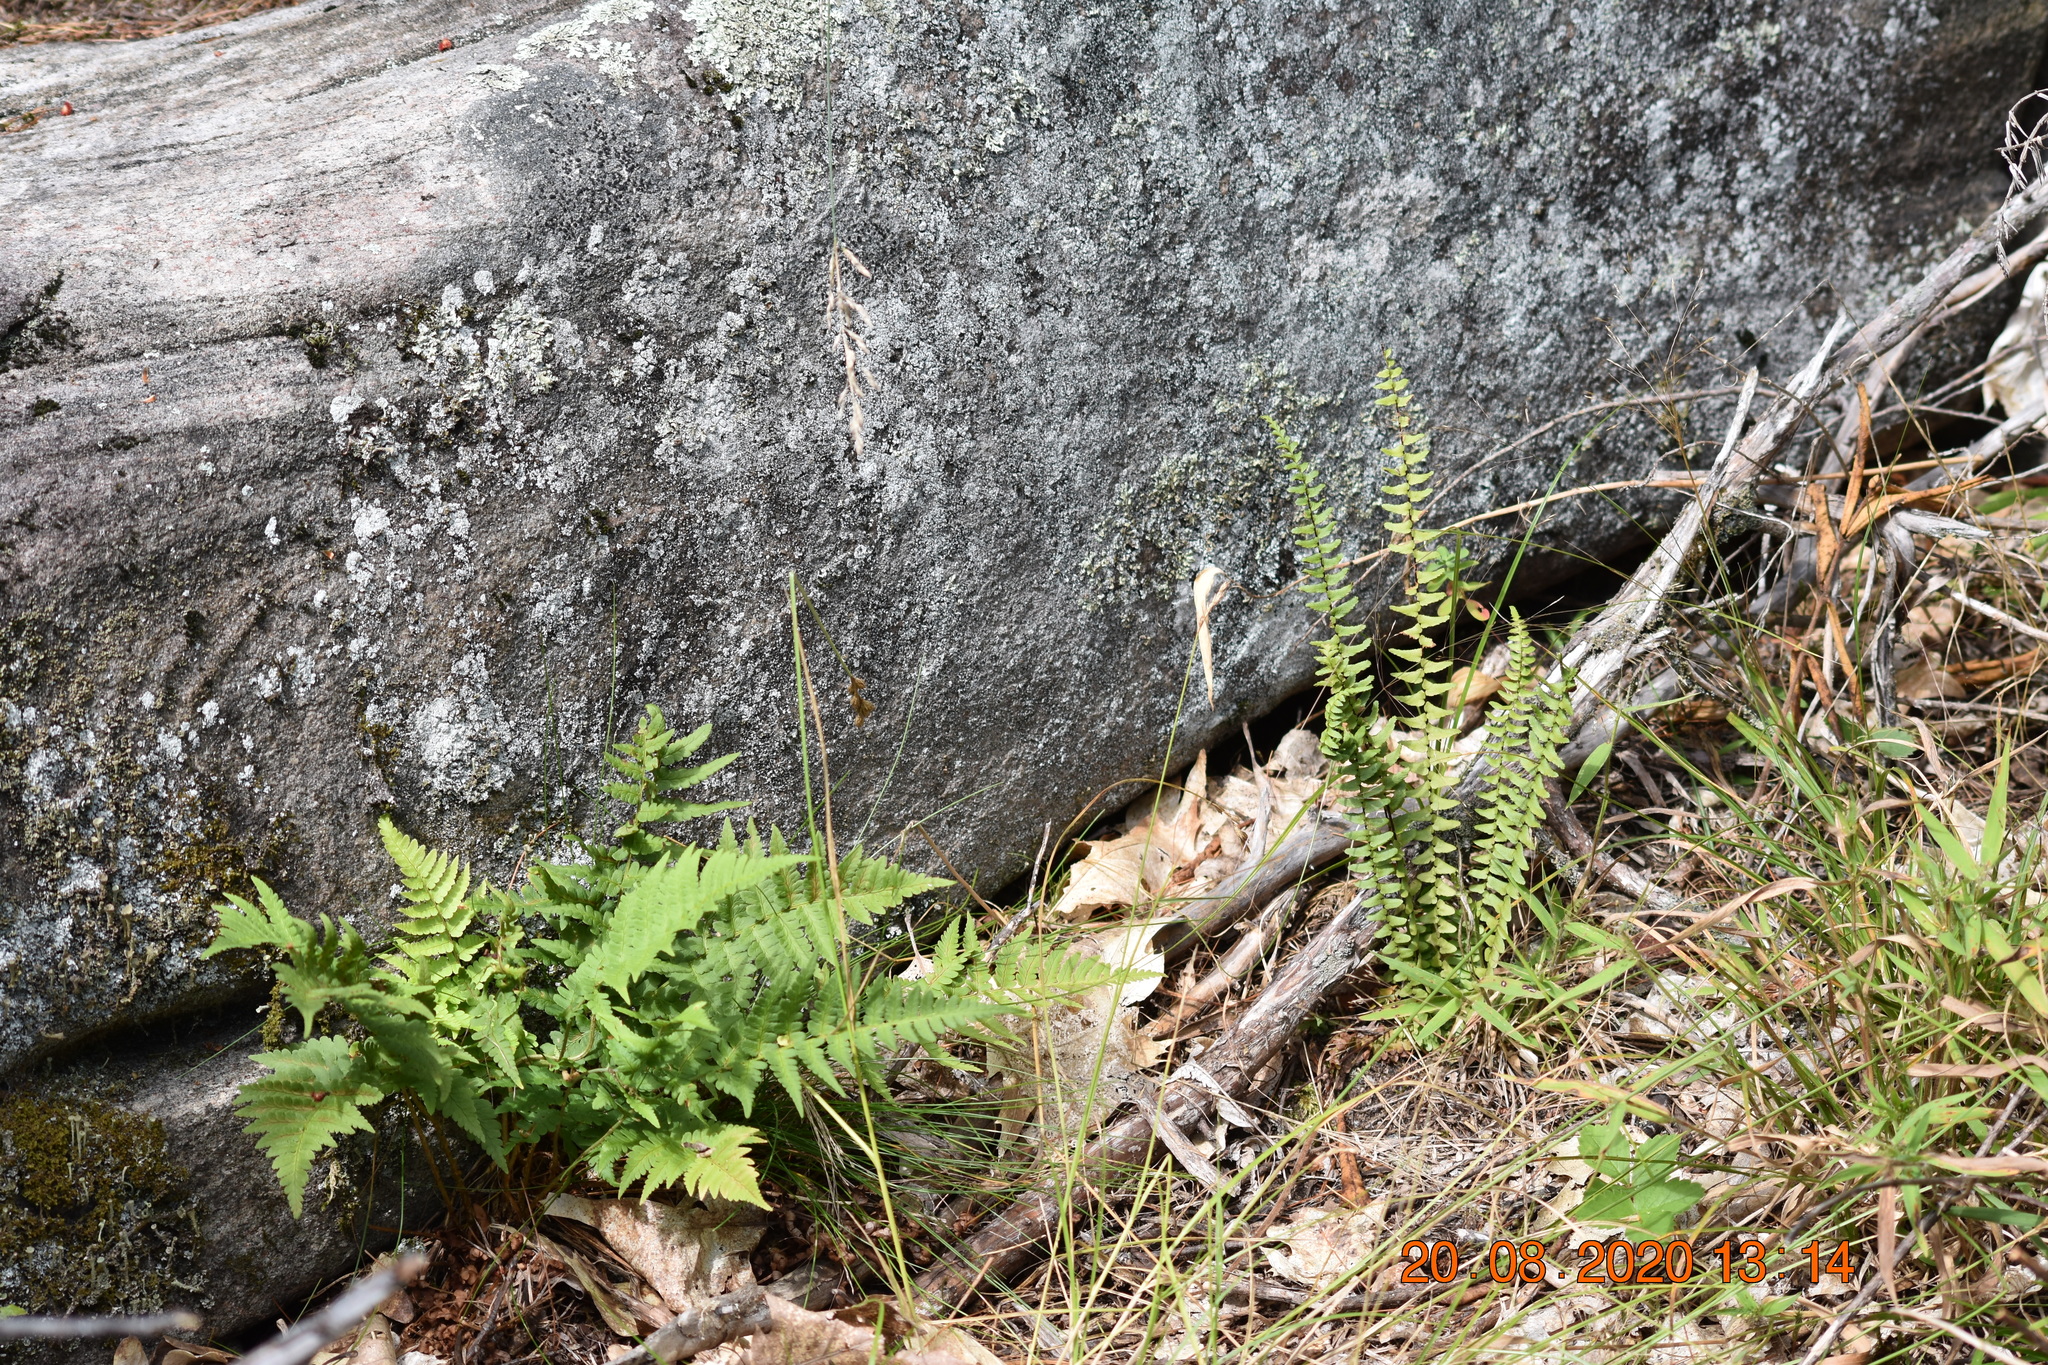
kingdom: Plantae
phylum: Tracheophyta
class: Polypodiopsida
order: Polypodiales
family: Dryopteridaceae
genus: Dryopteris
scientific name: Dryopteris marginalis
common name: Marginal wood fern
